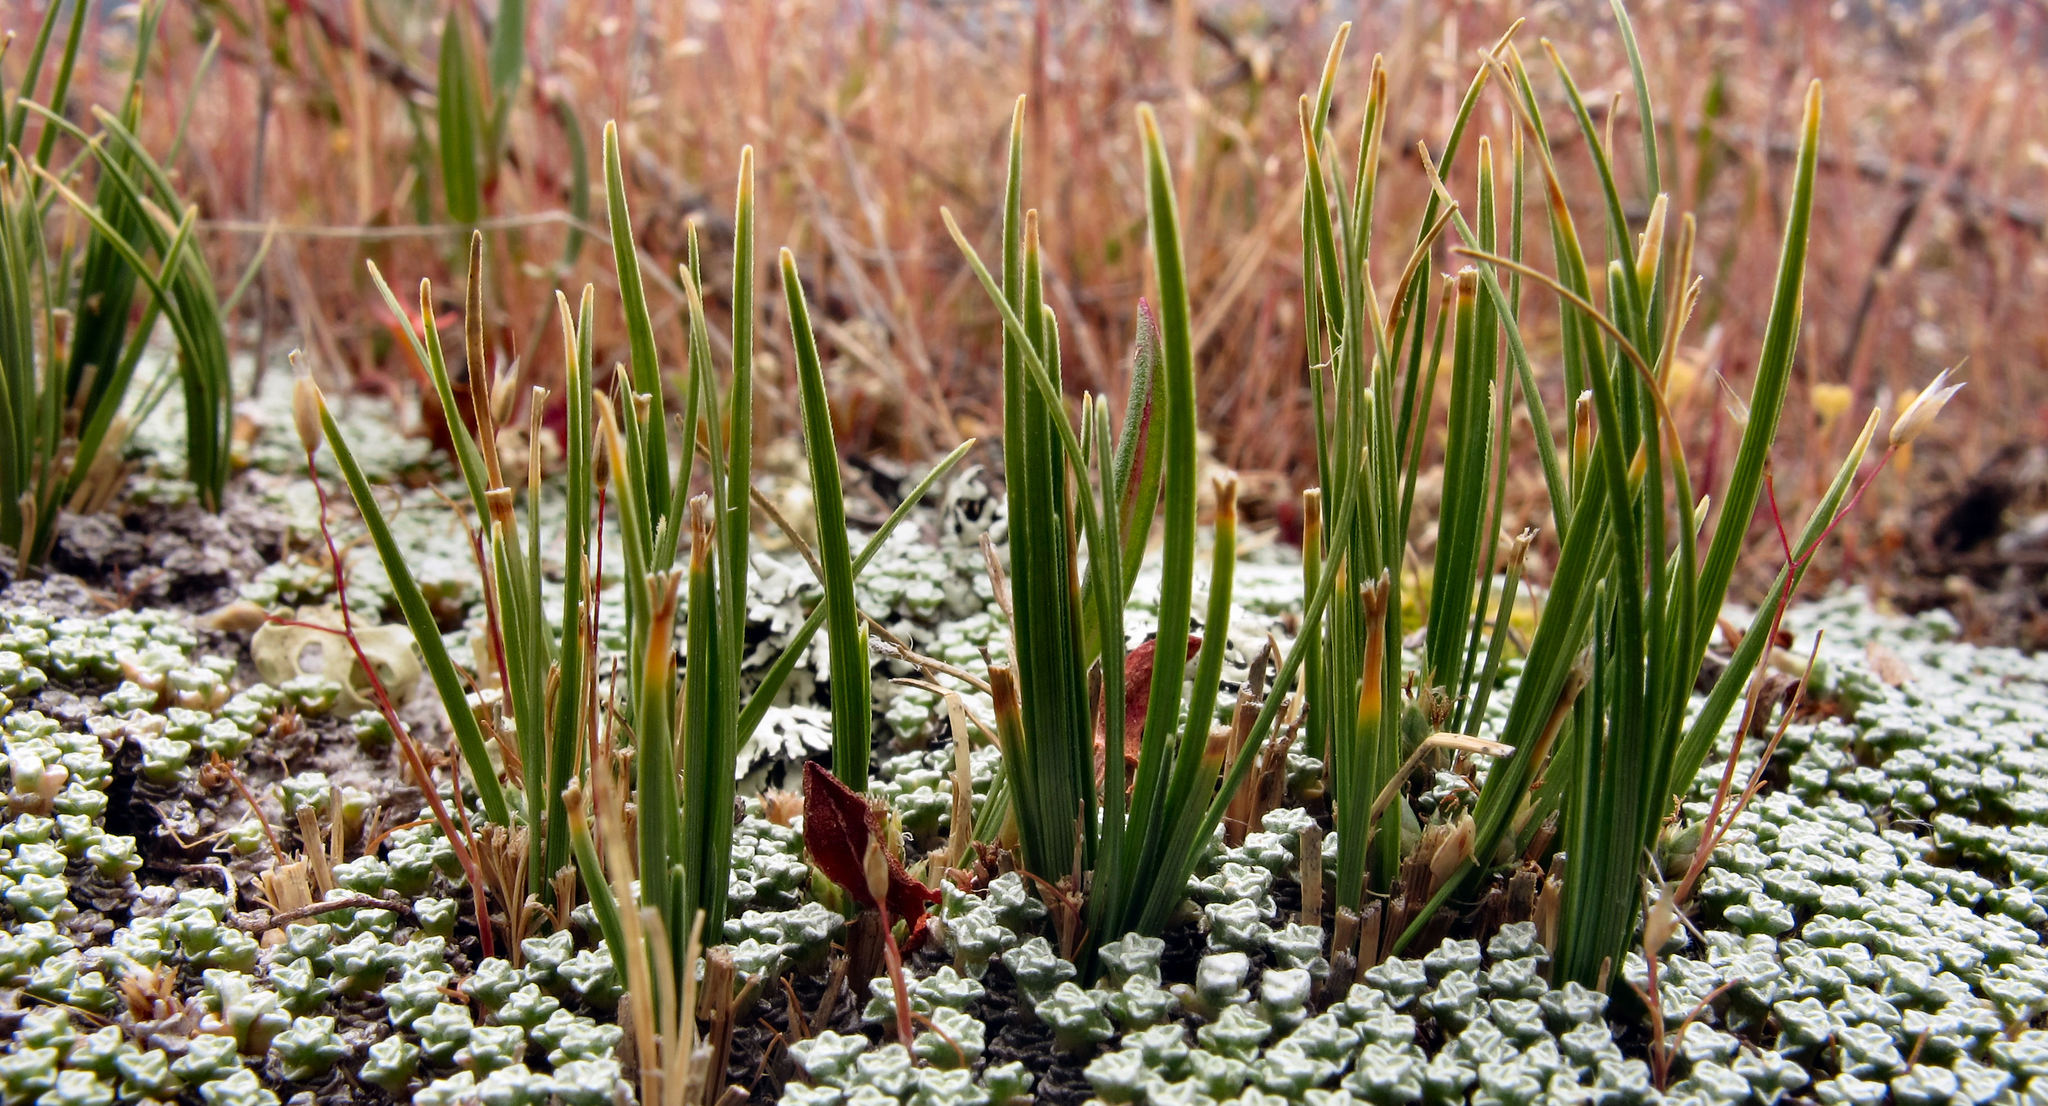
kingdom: Plantae
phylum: Tracheophyta
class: Liliopsida
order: Poales
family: Cyperaceae
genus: Carex
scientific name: Carex decurtata
